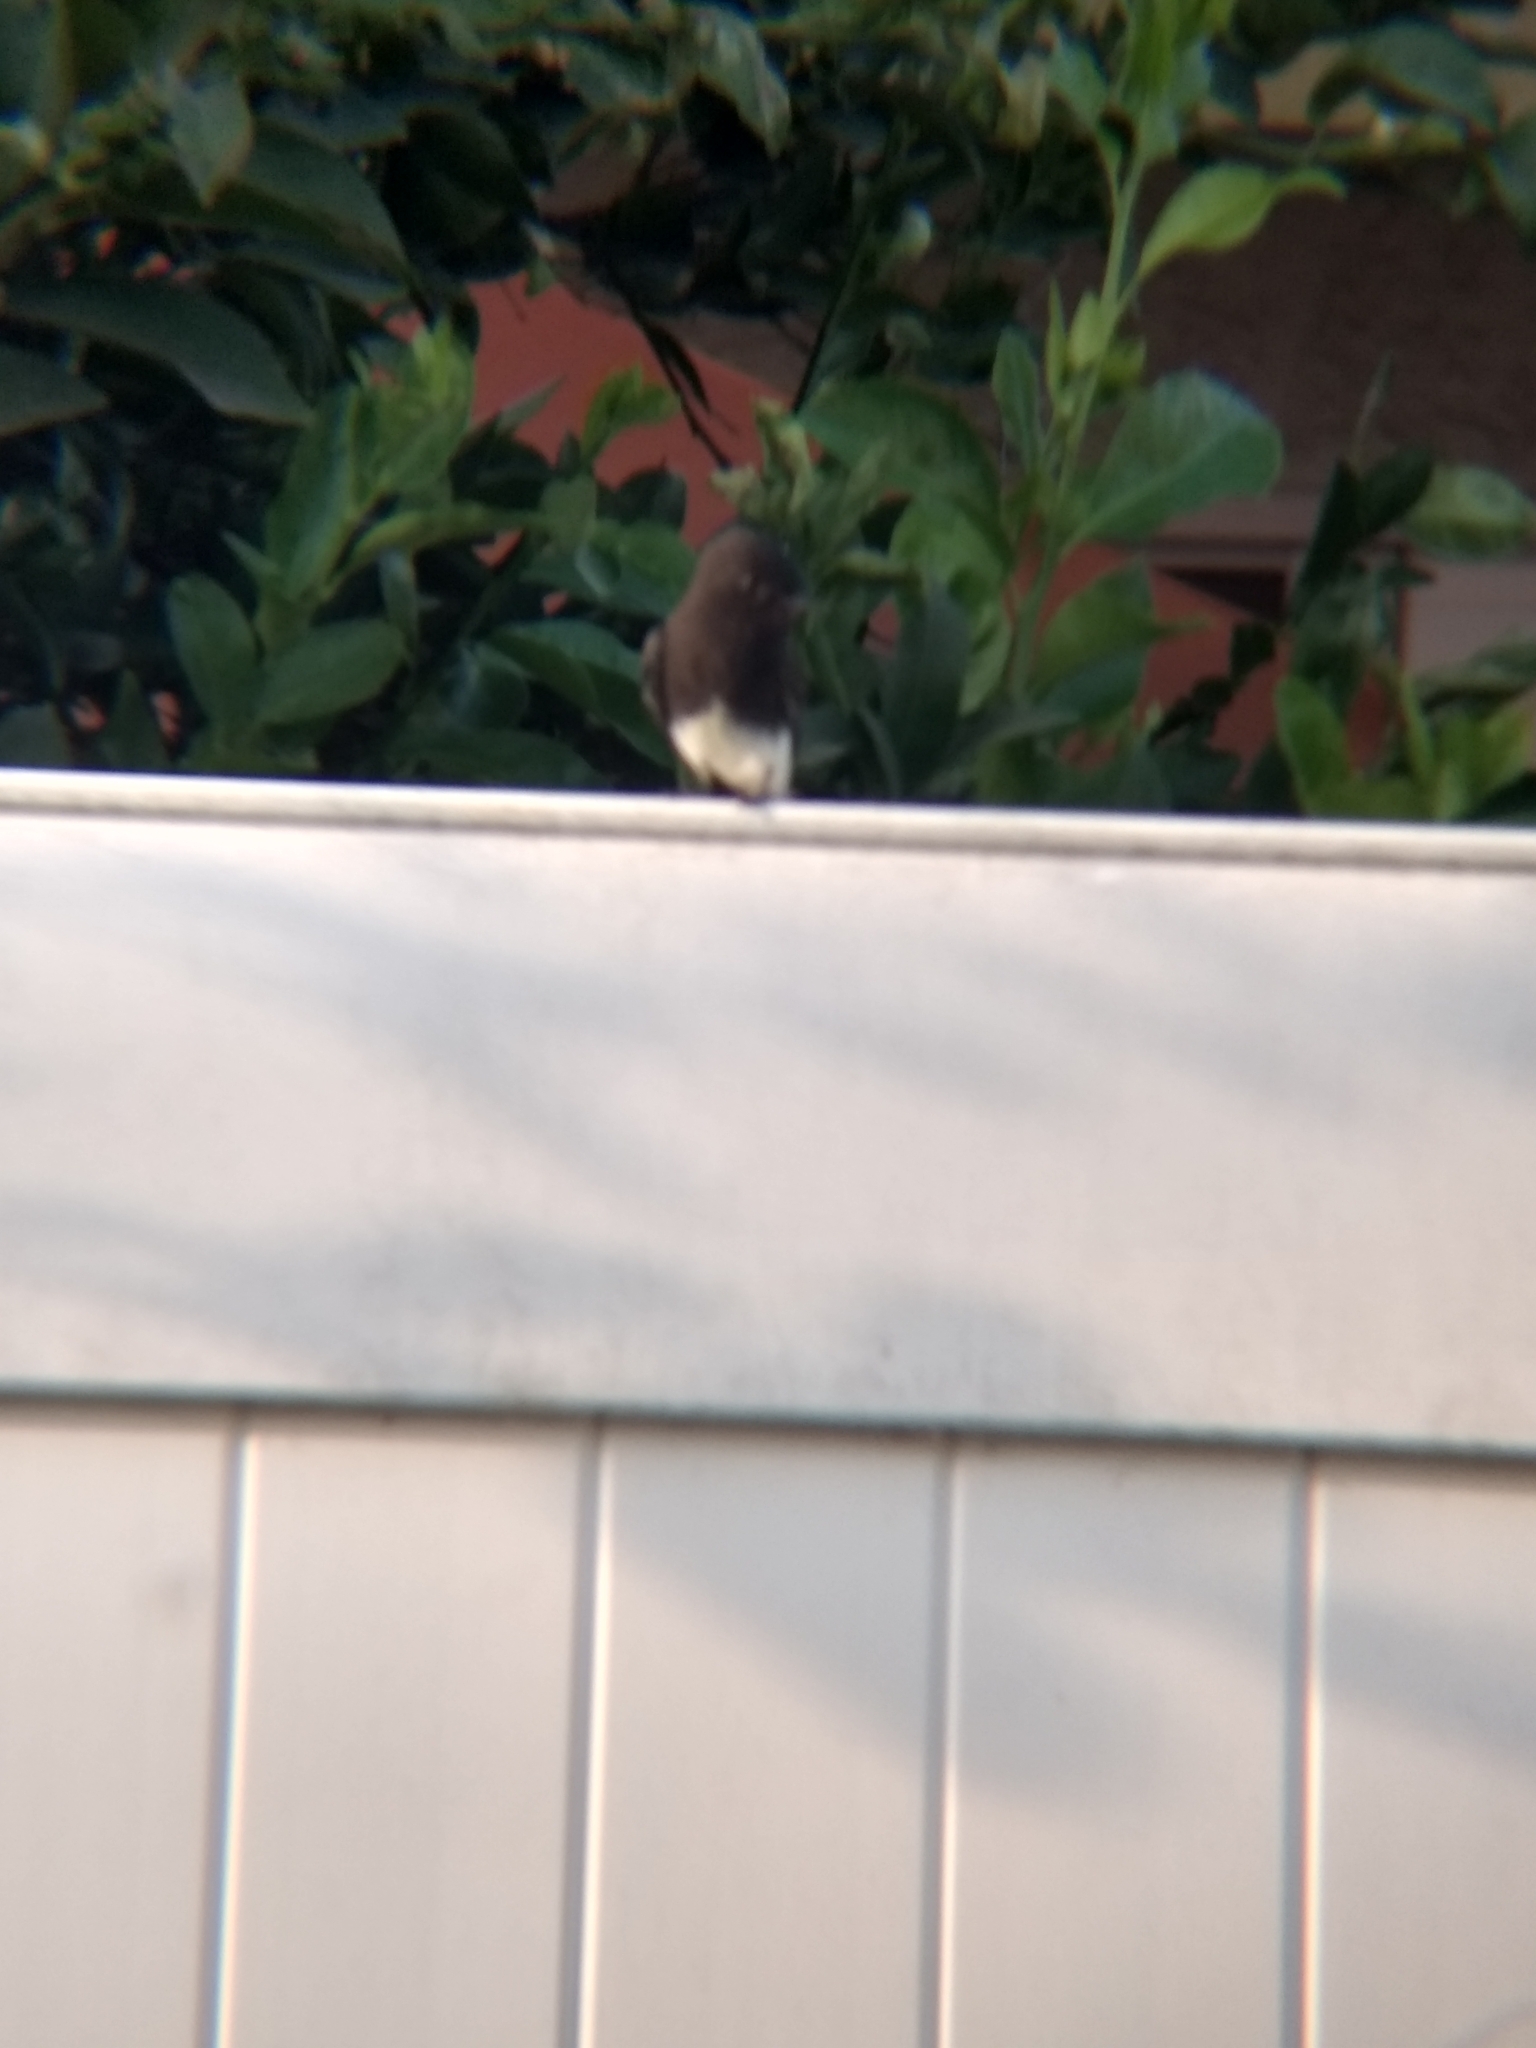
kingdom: Animalia
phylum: Chordata
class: Aves
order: Passeriformes
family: Tyrannidae
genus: Sayornis
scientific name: Sayornis nigricans
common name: Black phoebe
